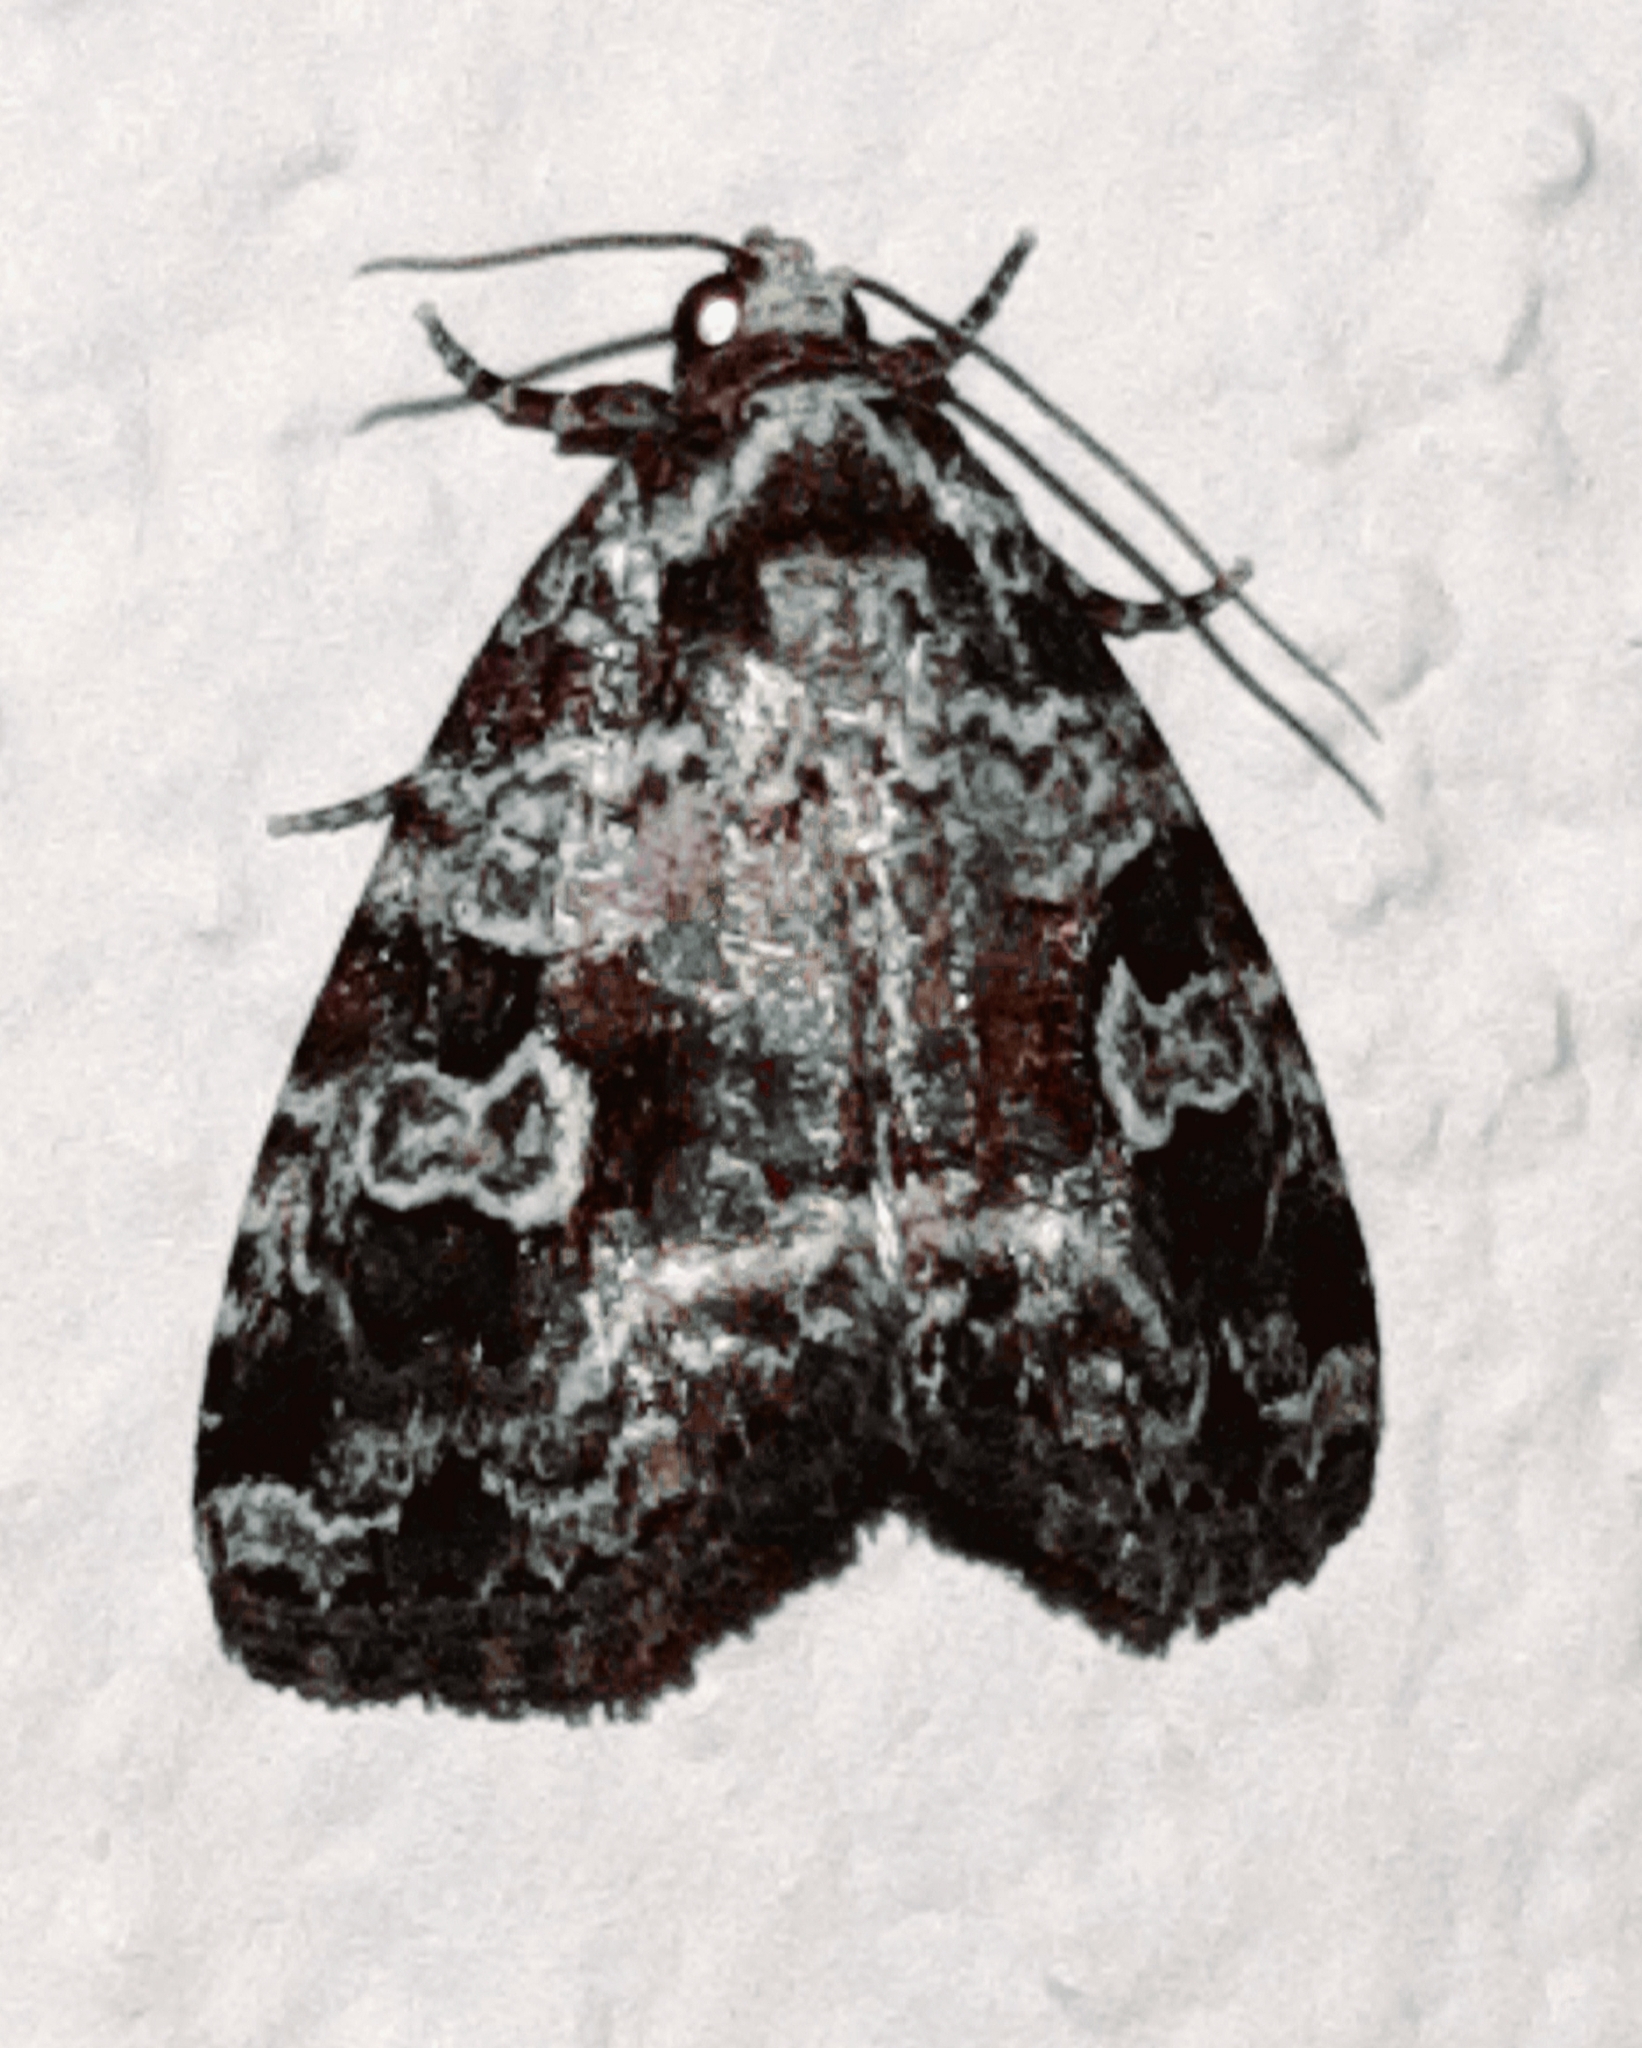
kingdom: Animalia
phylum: Arthropoda
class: Insecta
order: Lepidoptera
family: Noctuidae
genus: Mictochroa
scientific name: Mictochroa zonella
